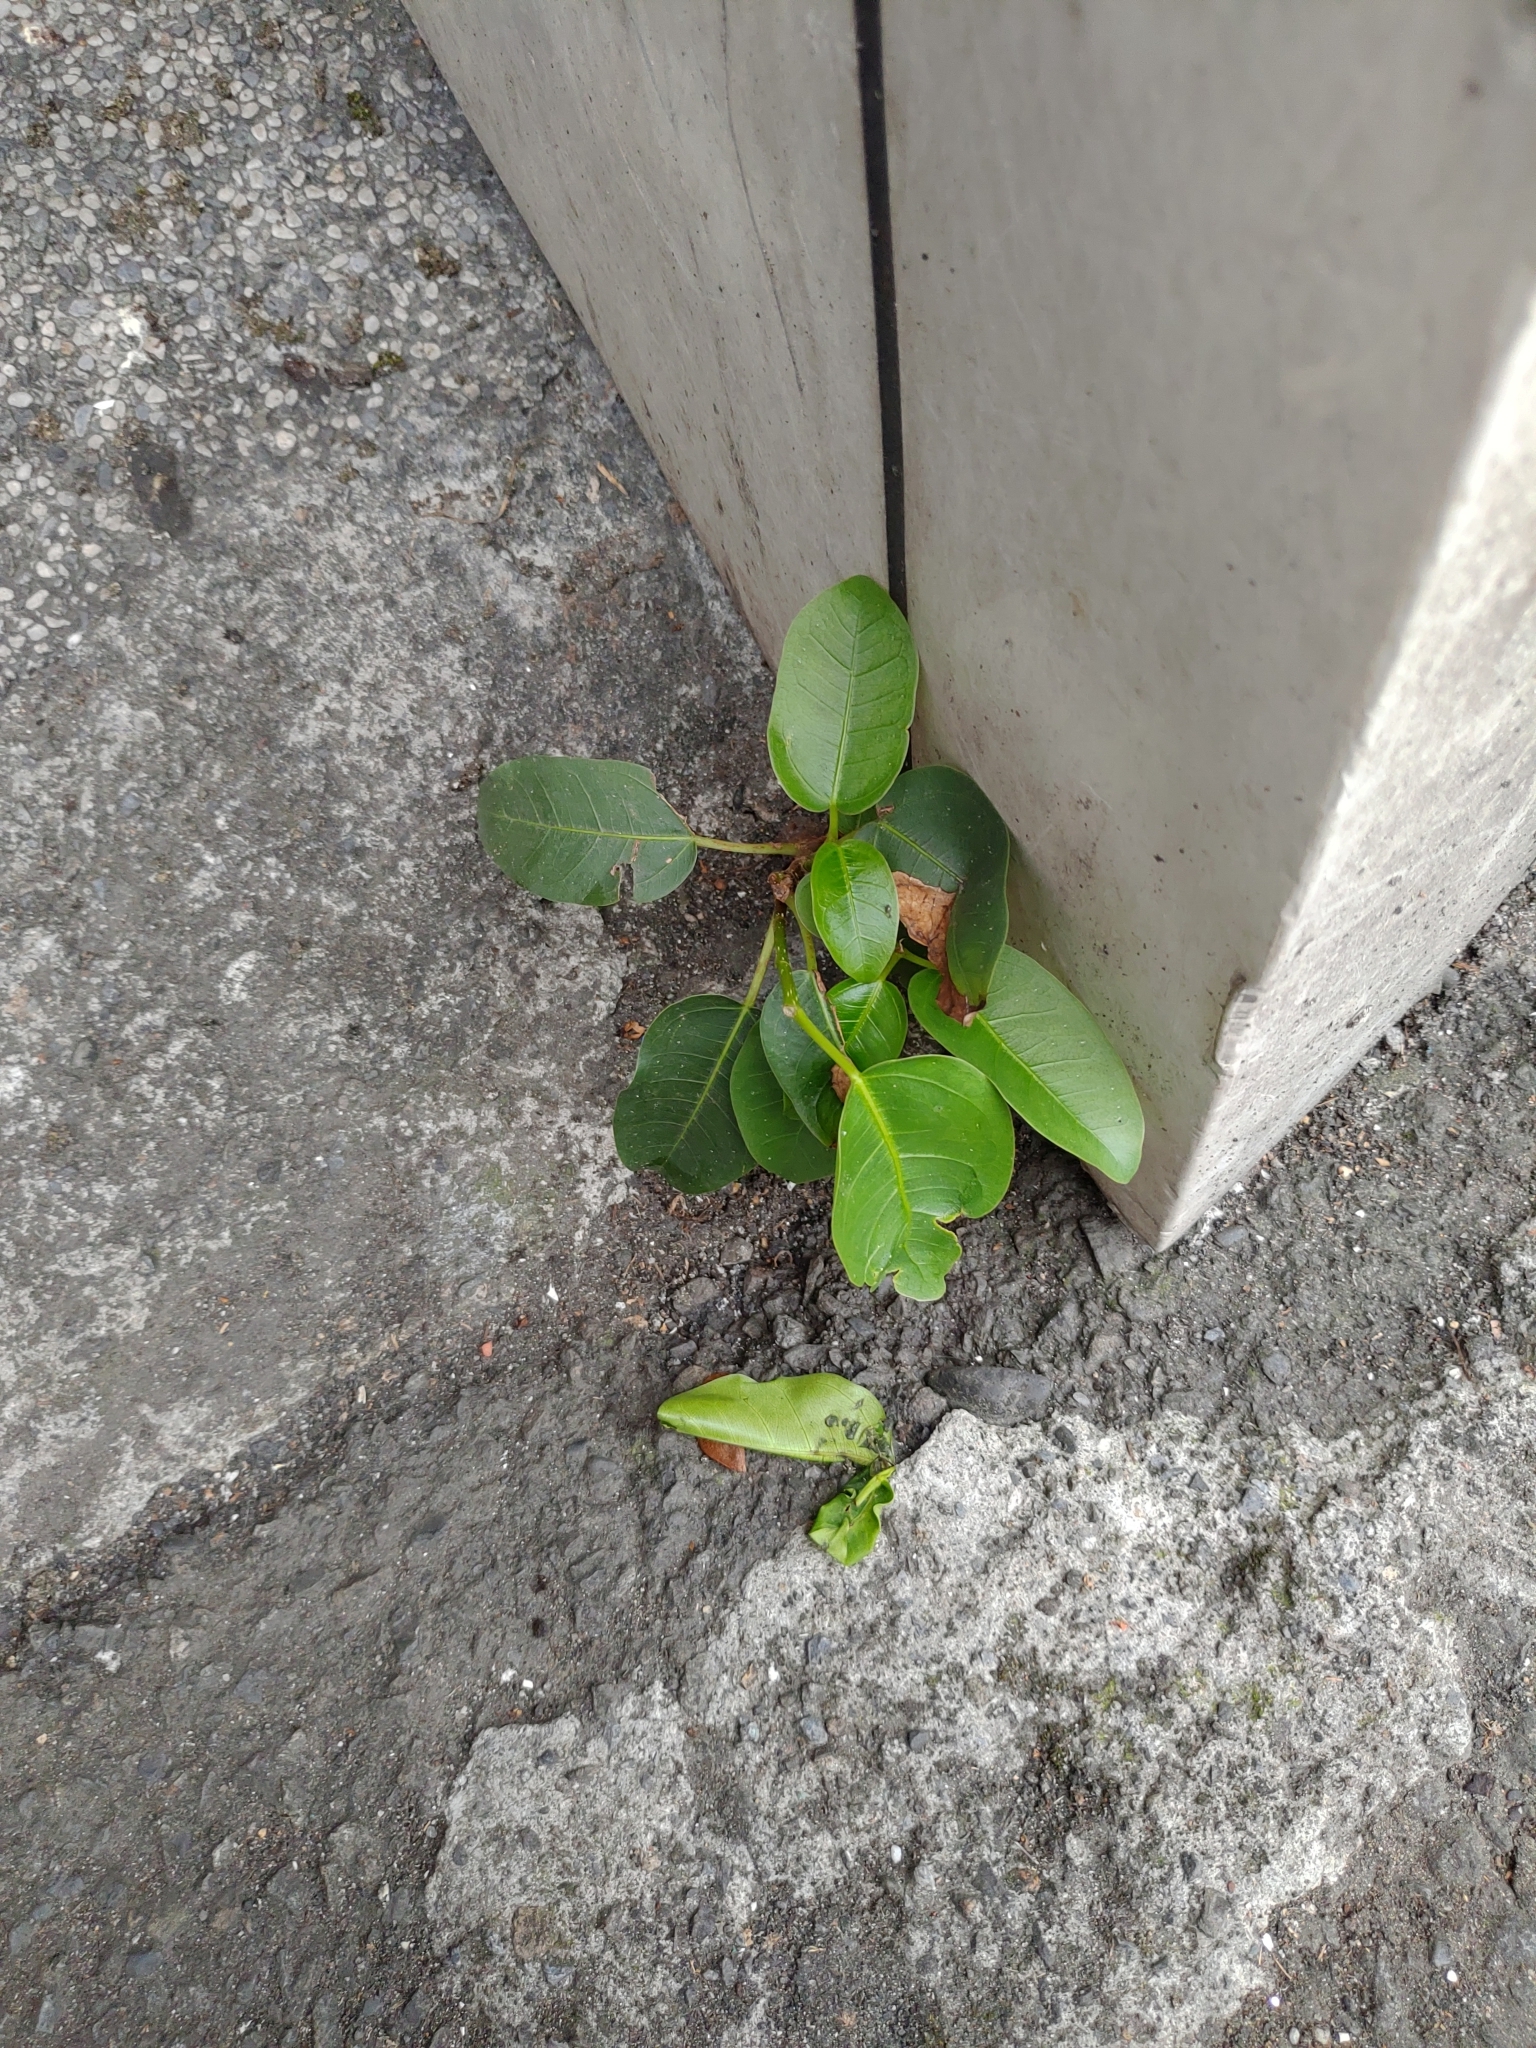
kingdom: Plantae
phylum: Tracheophyta
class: Magnoliopsida
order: Rosales
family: Moraceae
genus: Ficus
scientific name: Ficus subpisocarpa
